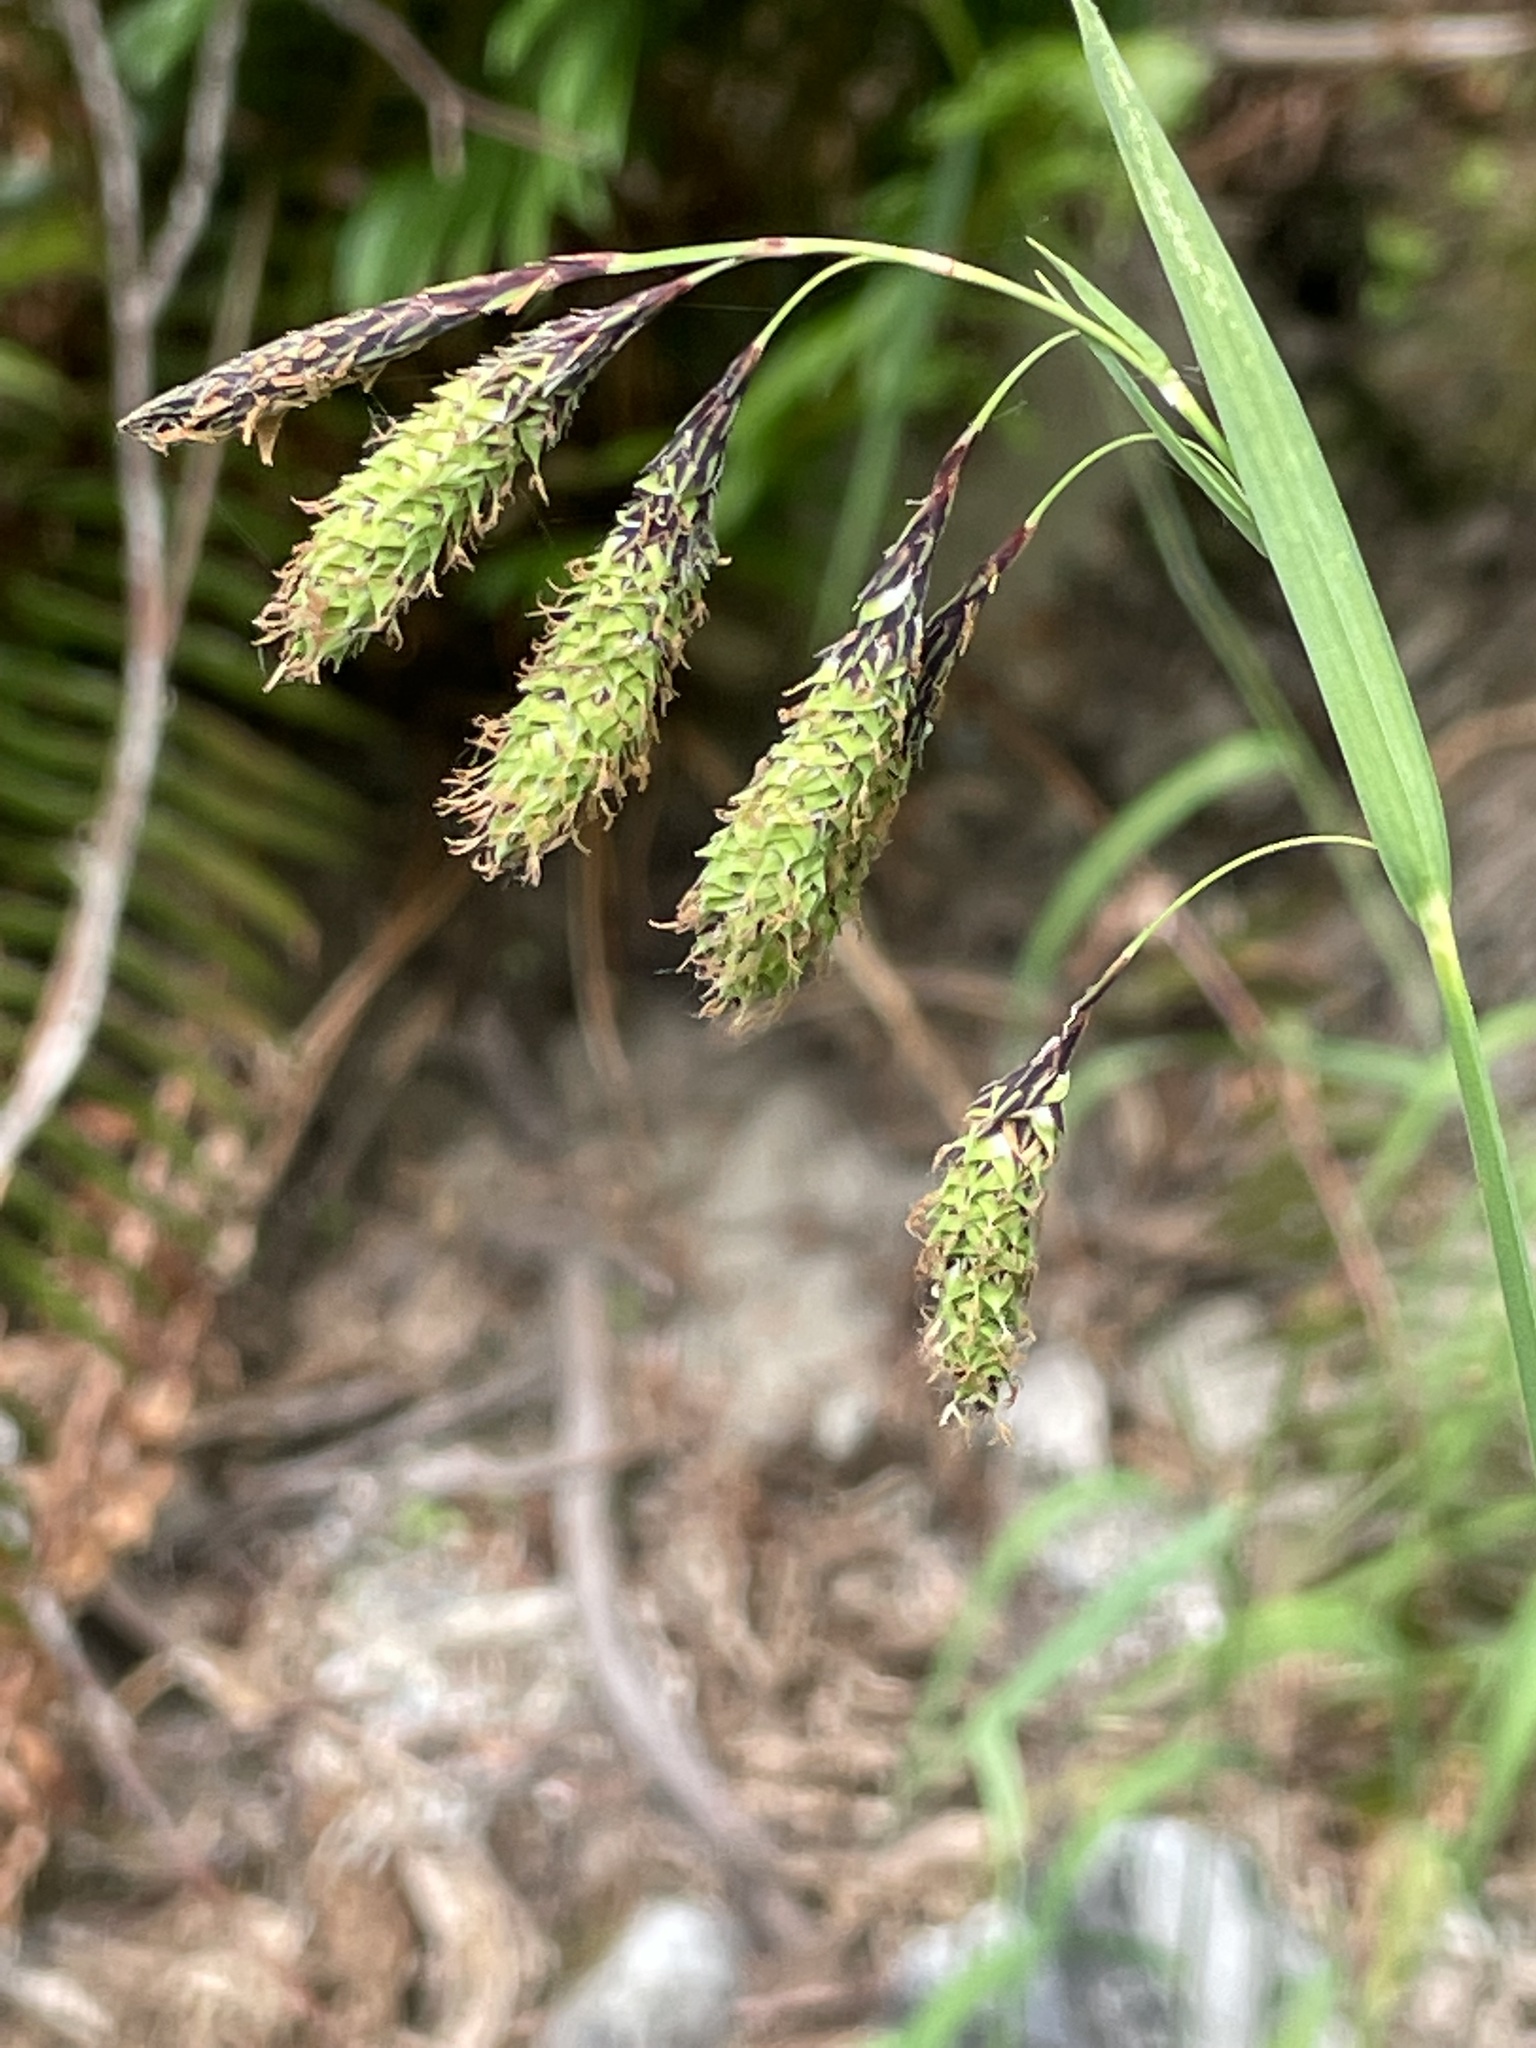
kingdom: Plantae
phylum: Tracheophyta
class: Liliopsida
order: Poales
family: Cyperaceae
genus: Carex
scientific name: Carex mertensii
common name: Mertens' sedge
